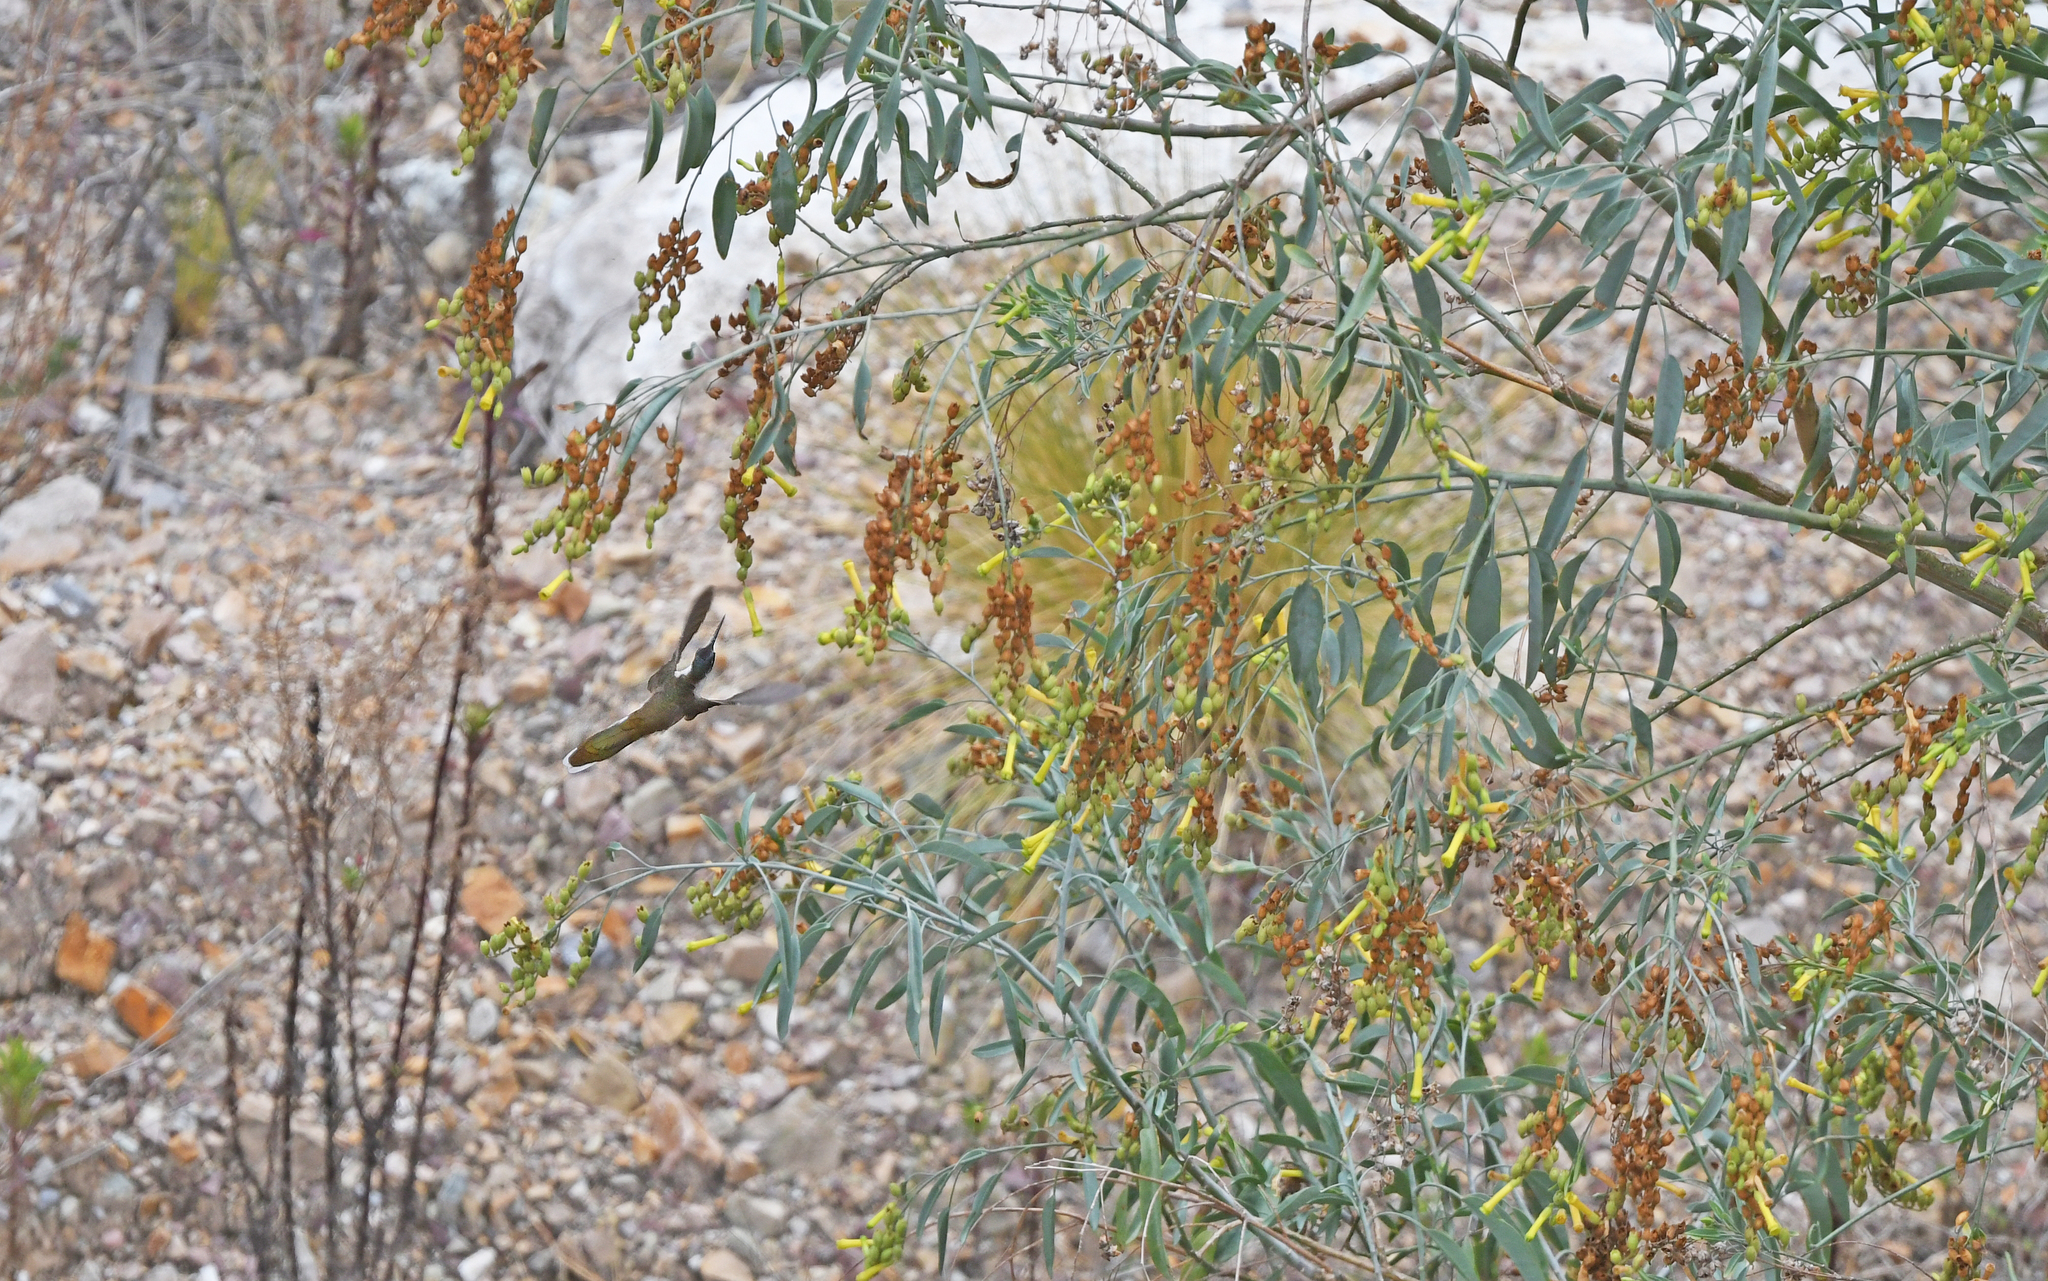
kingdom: Animalia
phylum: Chordata
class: Aves
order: Apodiformes
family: Trochilidae
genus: Oreonympha
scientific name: Oreonympha nobilis
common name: Bearded mountaineer
